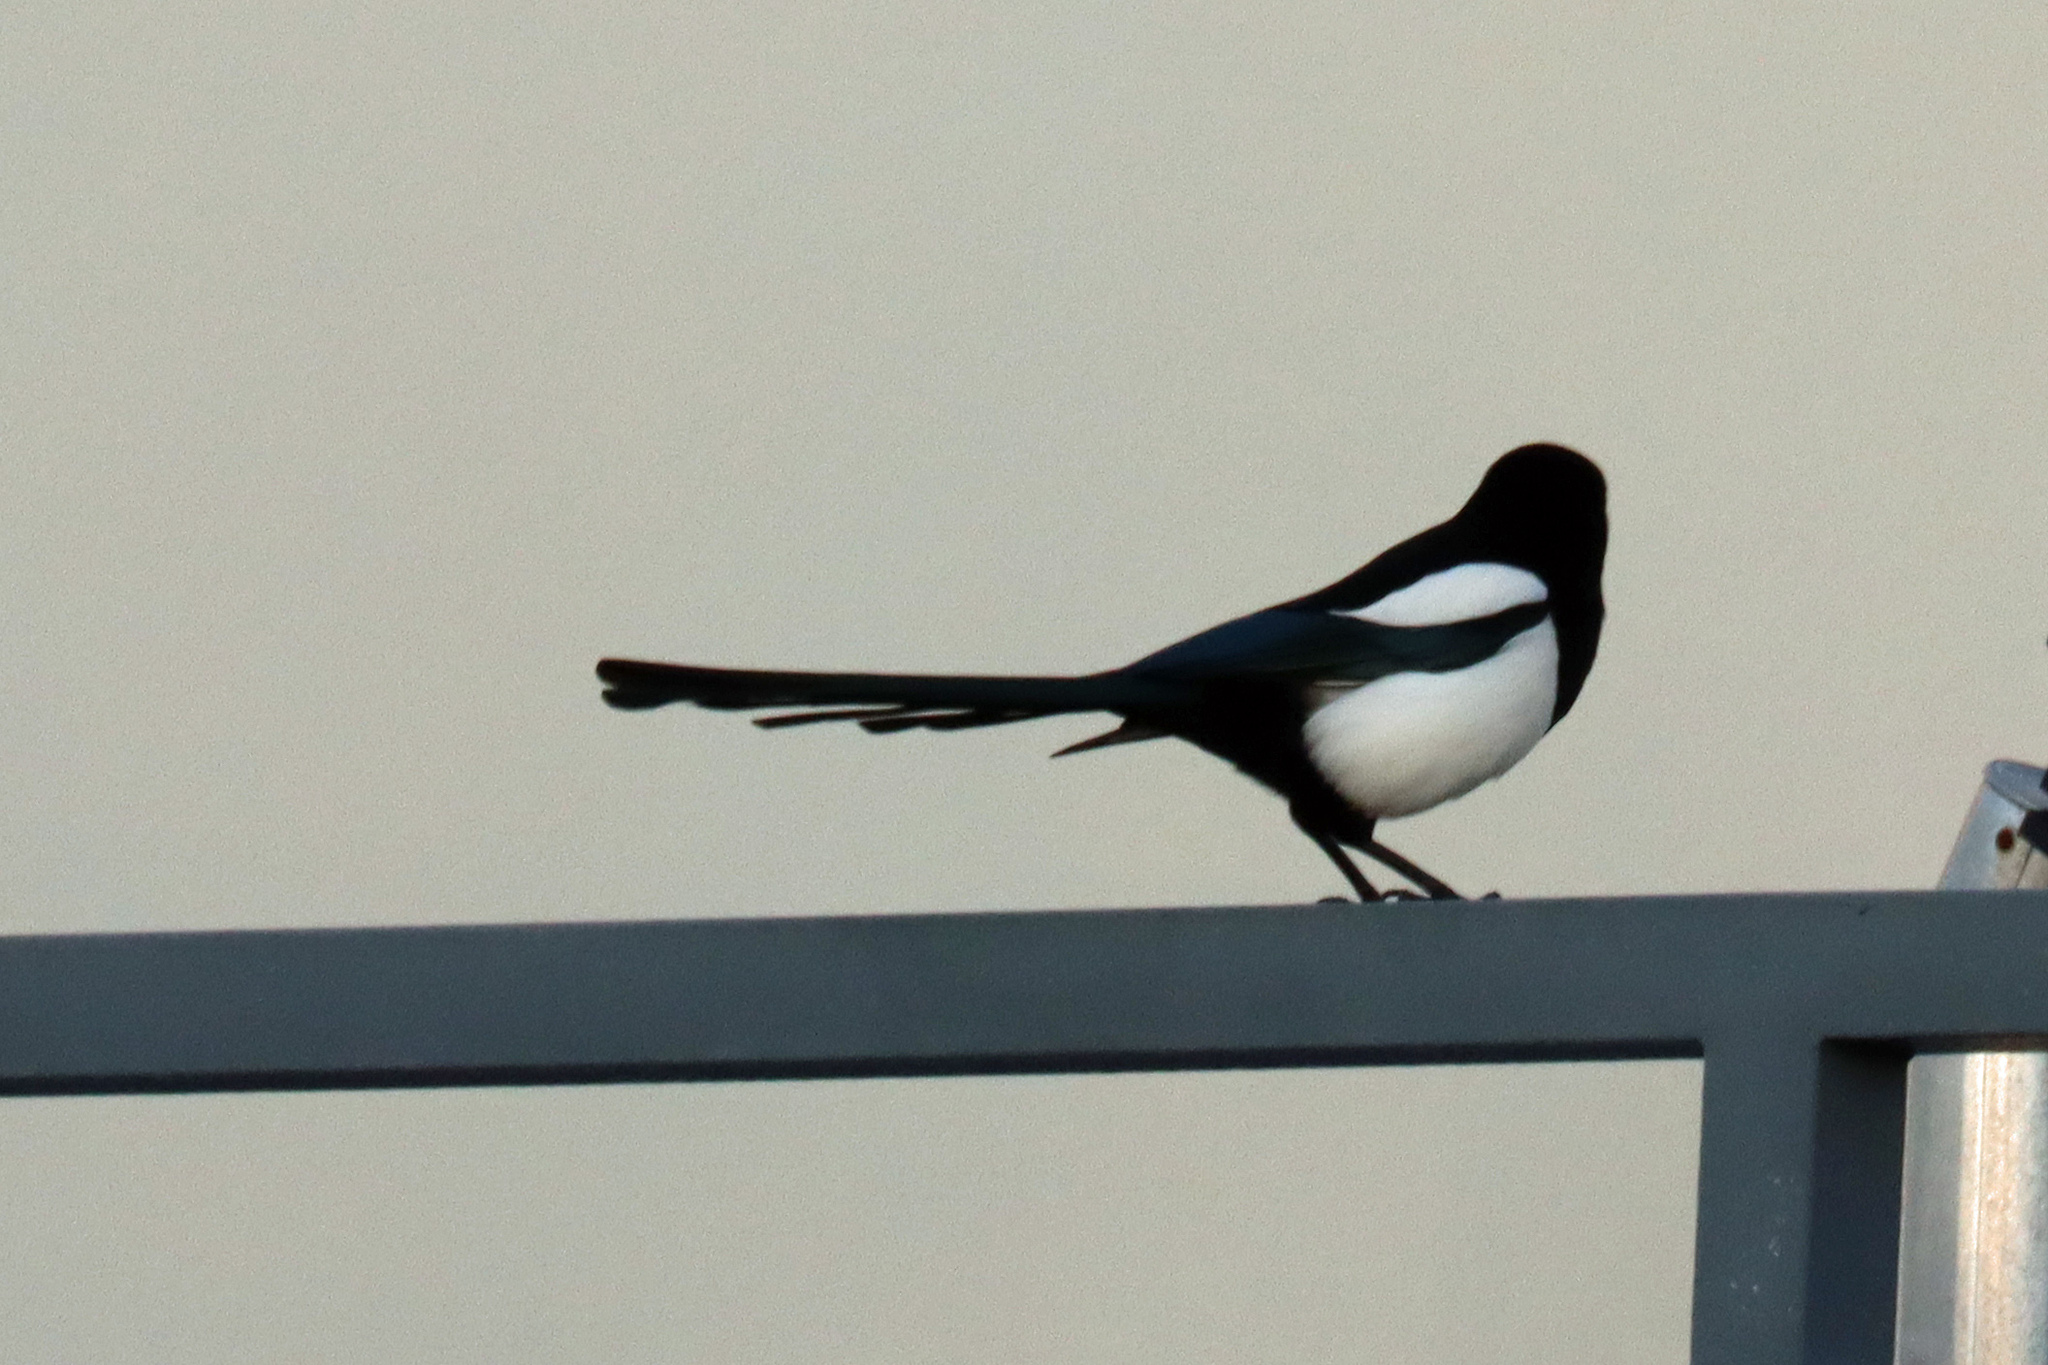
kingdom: Animalia
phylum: Chordata
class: Aves
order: Passeriformes
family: Corvidae
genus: Pica
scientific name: Pica pica
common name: Eurasian magpie
